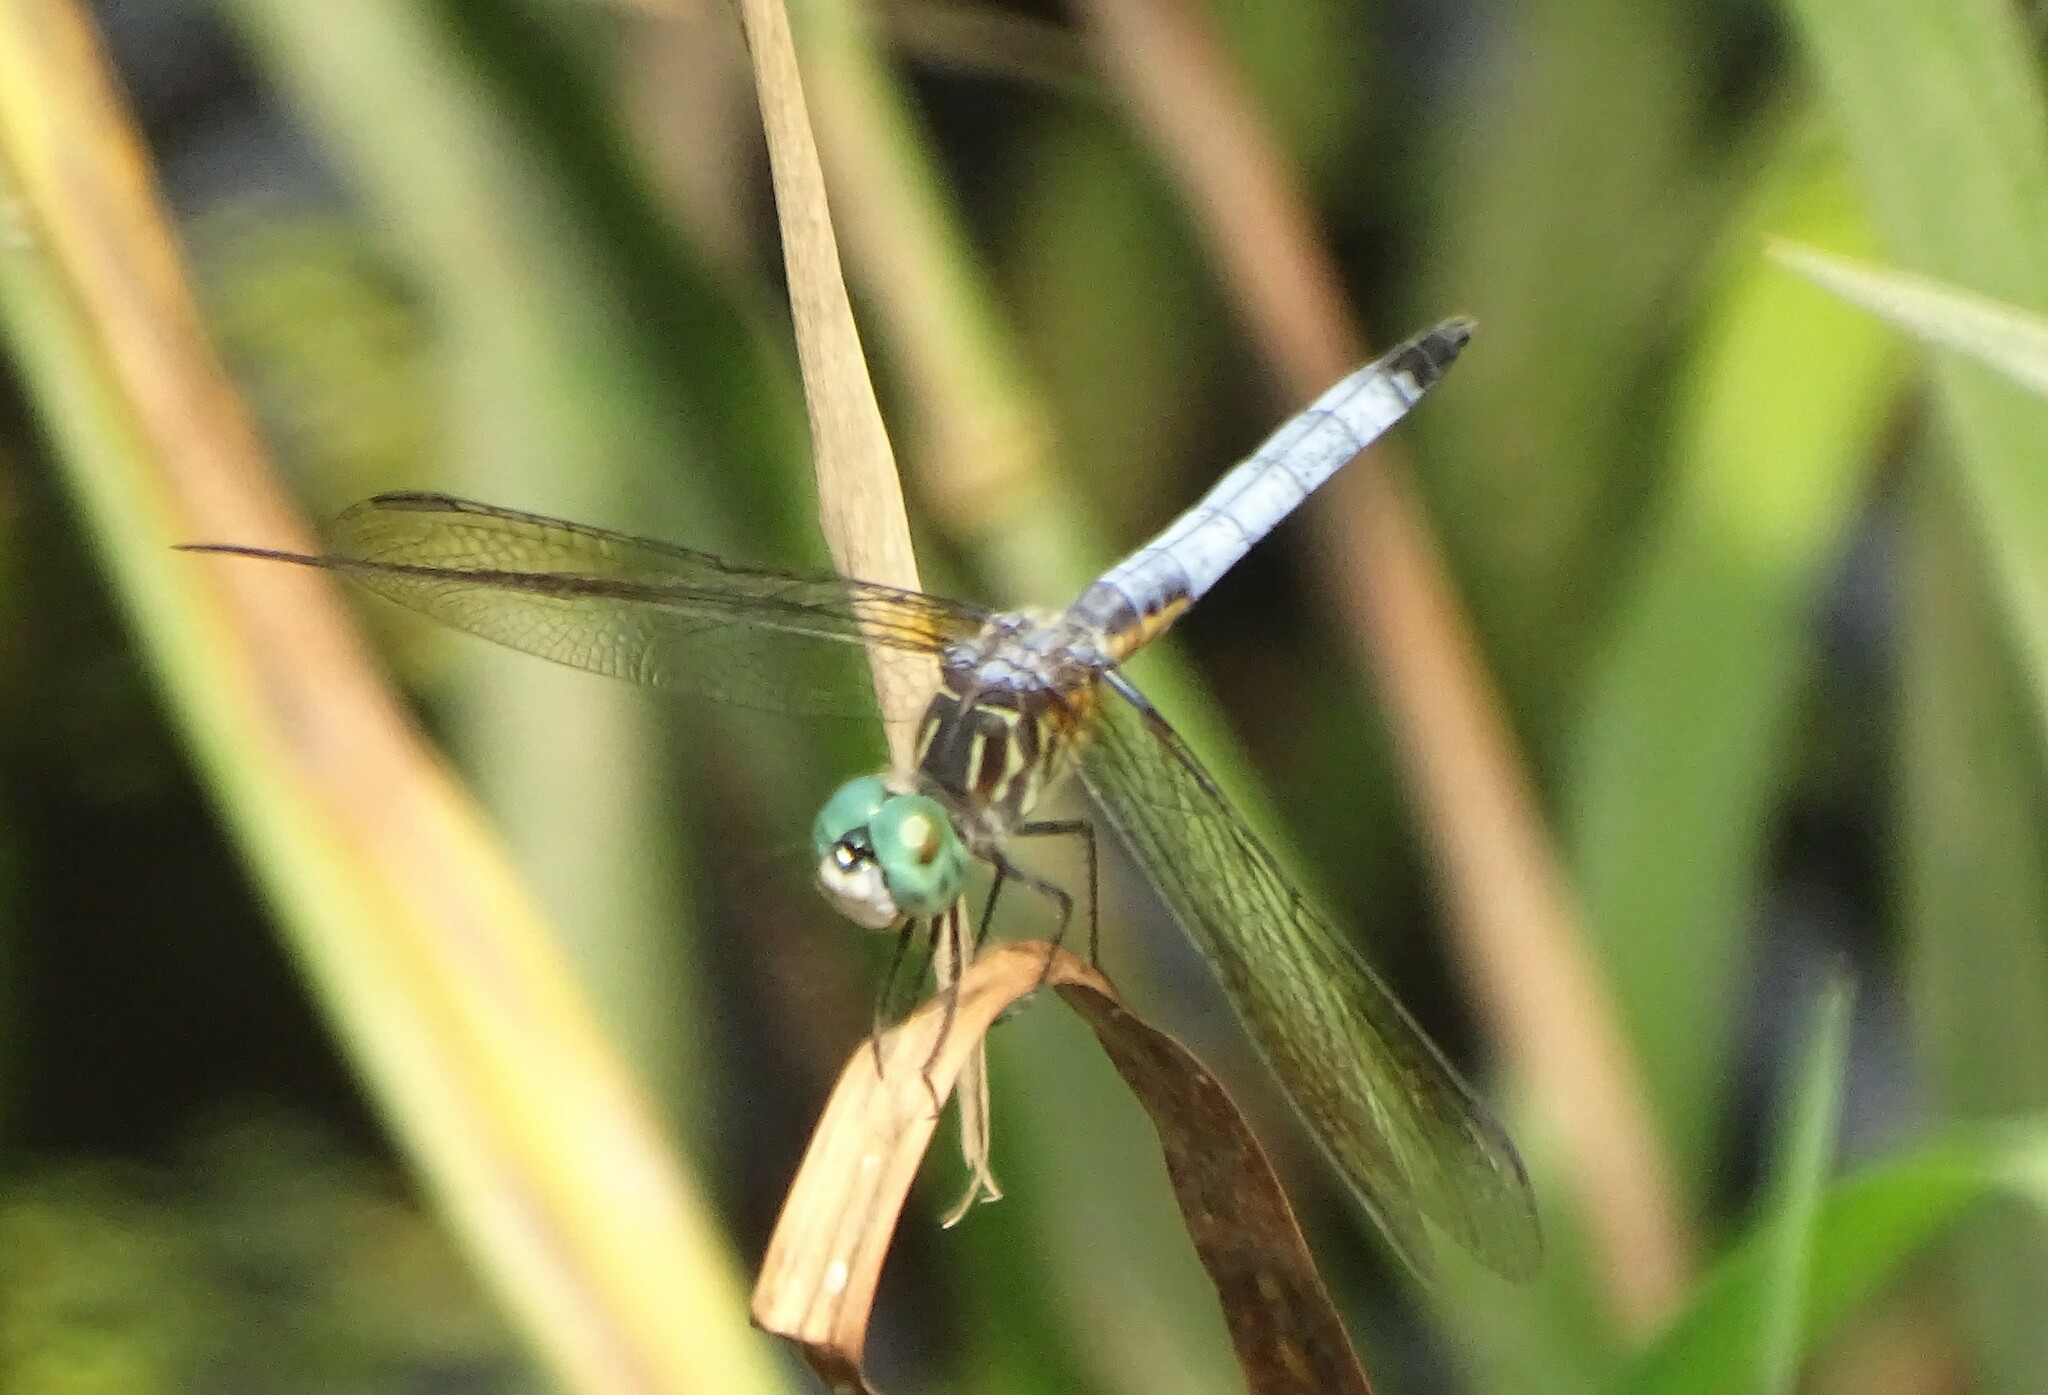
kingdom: Animalia
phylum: Arthropoda
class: Insecta
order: Odonata
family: Libellulidae
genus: Pachydiplax
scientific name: Pachydiplax longipennis
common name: Blue dasher
